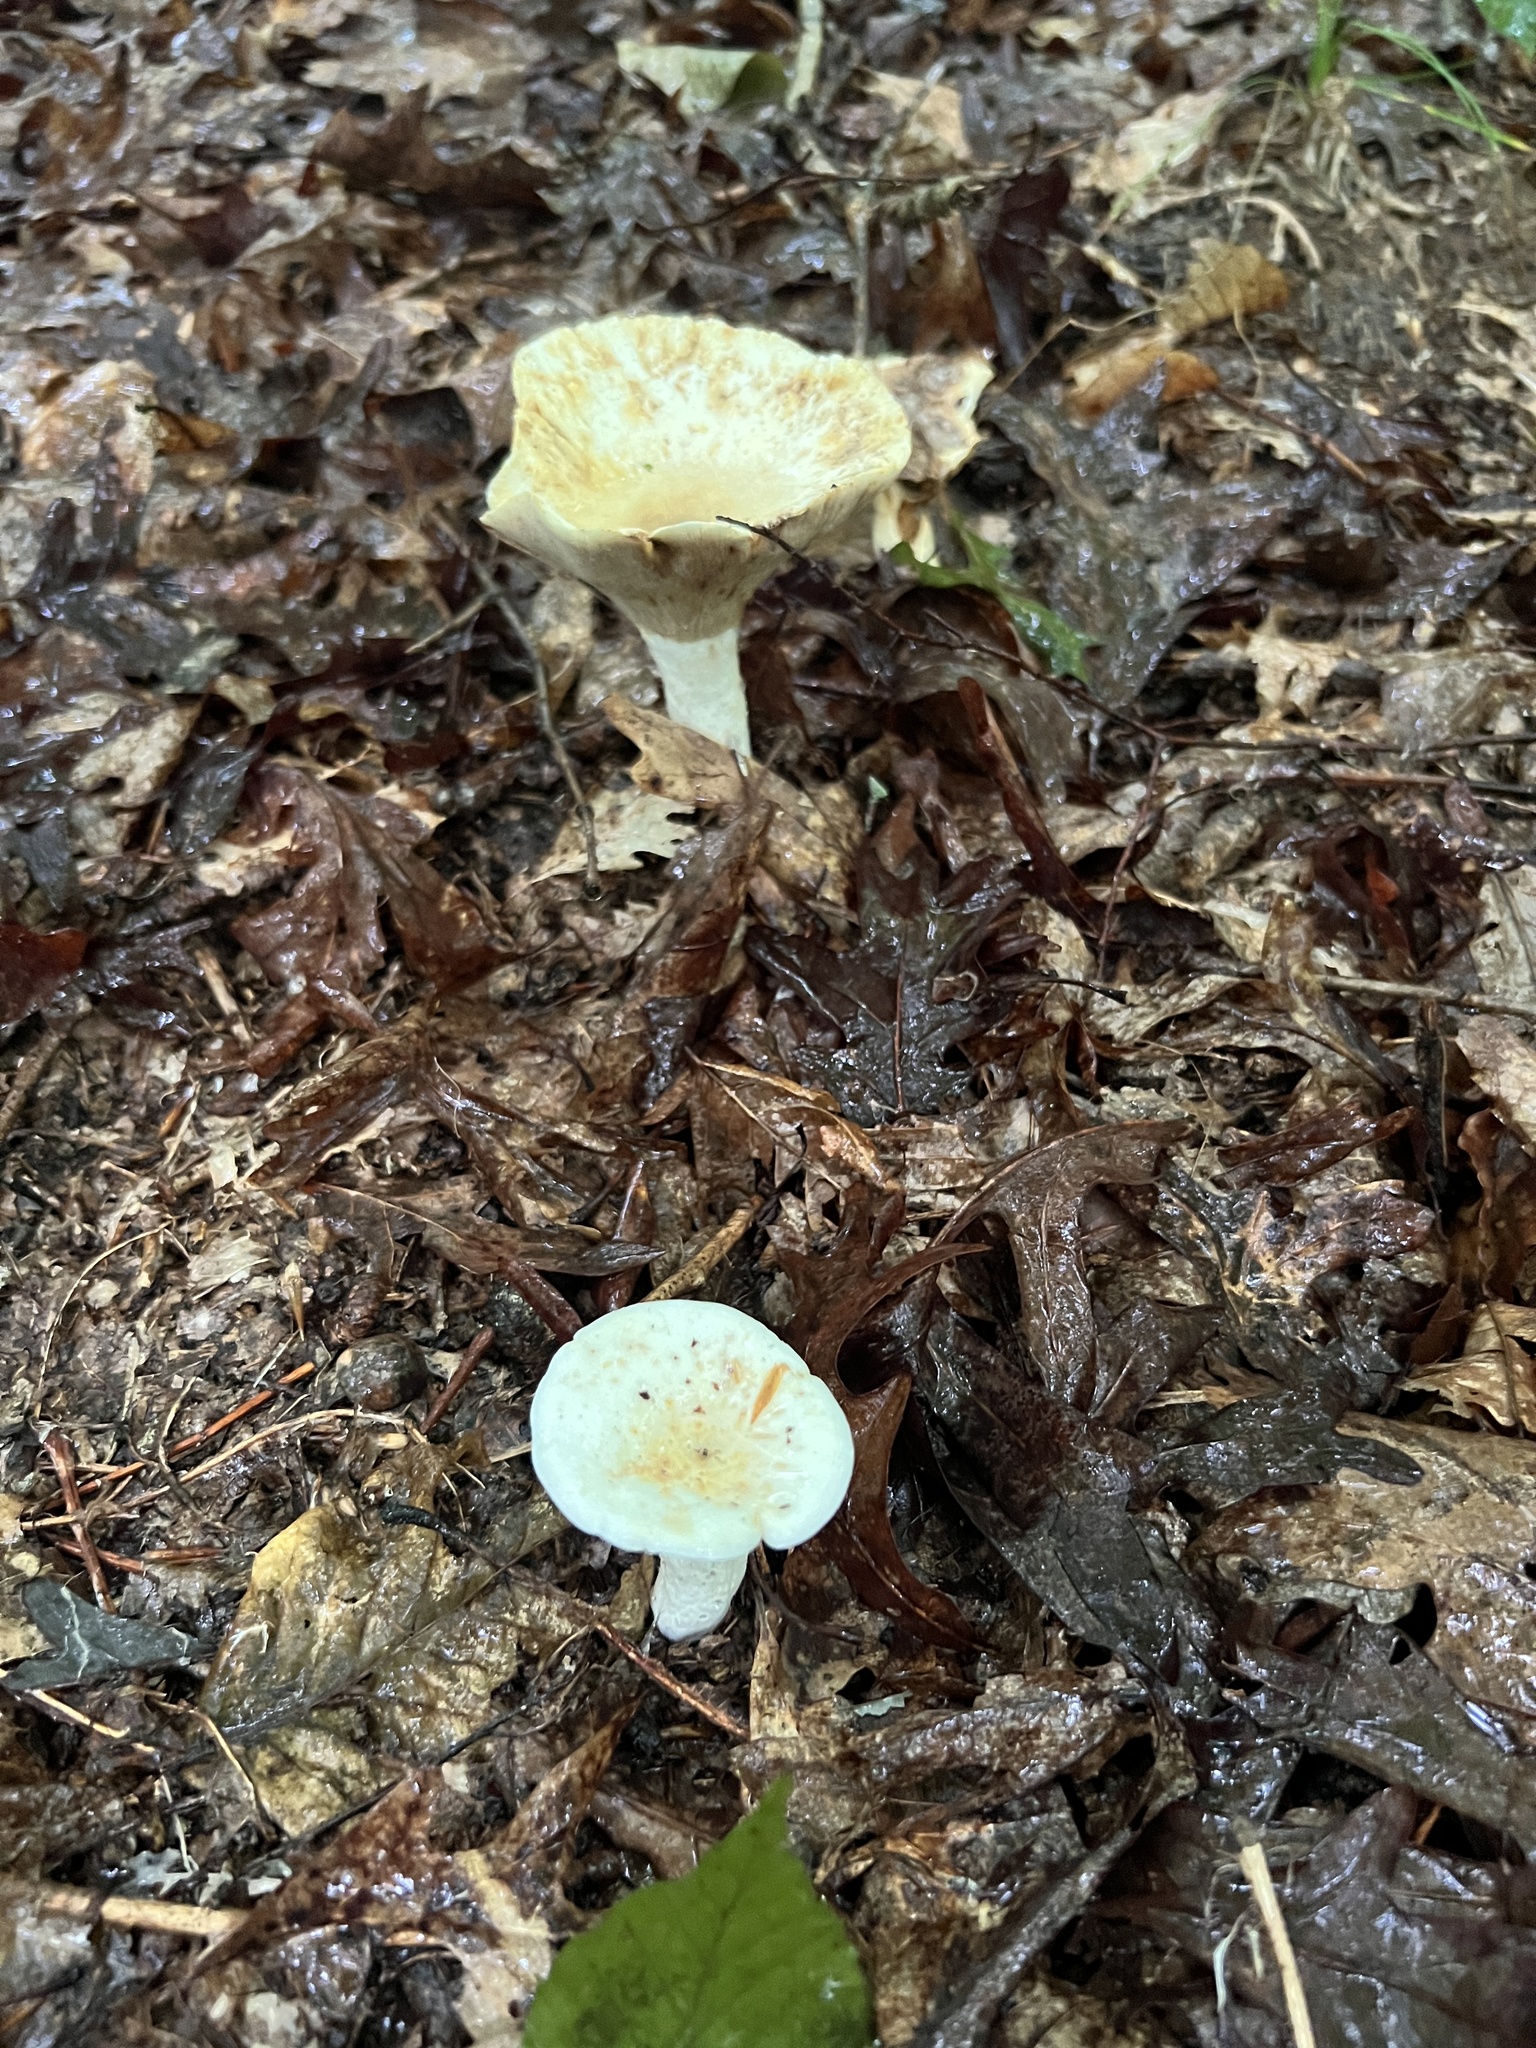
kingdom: Fungi
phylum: Basidiomycota
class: Agaricomycetes
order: Russulales
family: Russulaceae
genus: Lactifluus
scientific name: Lactifluus piperatus
